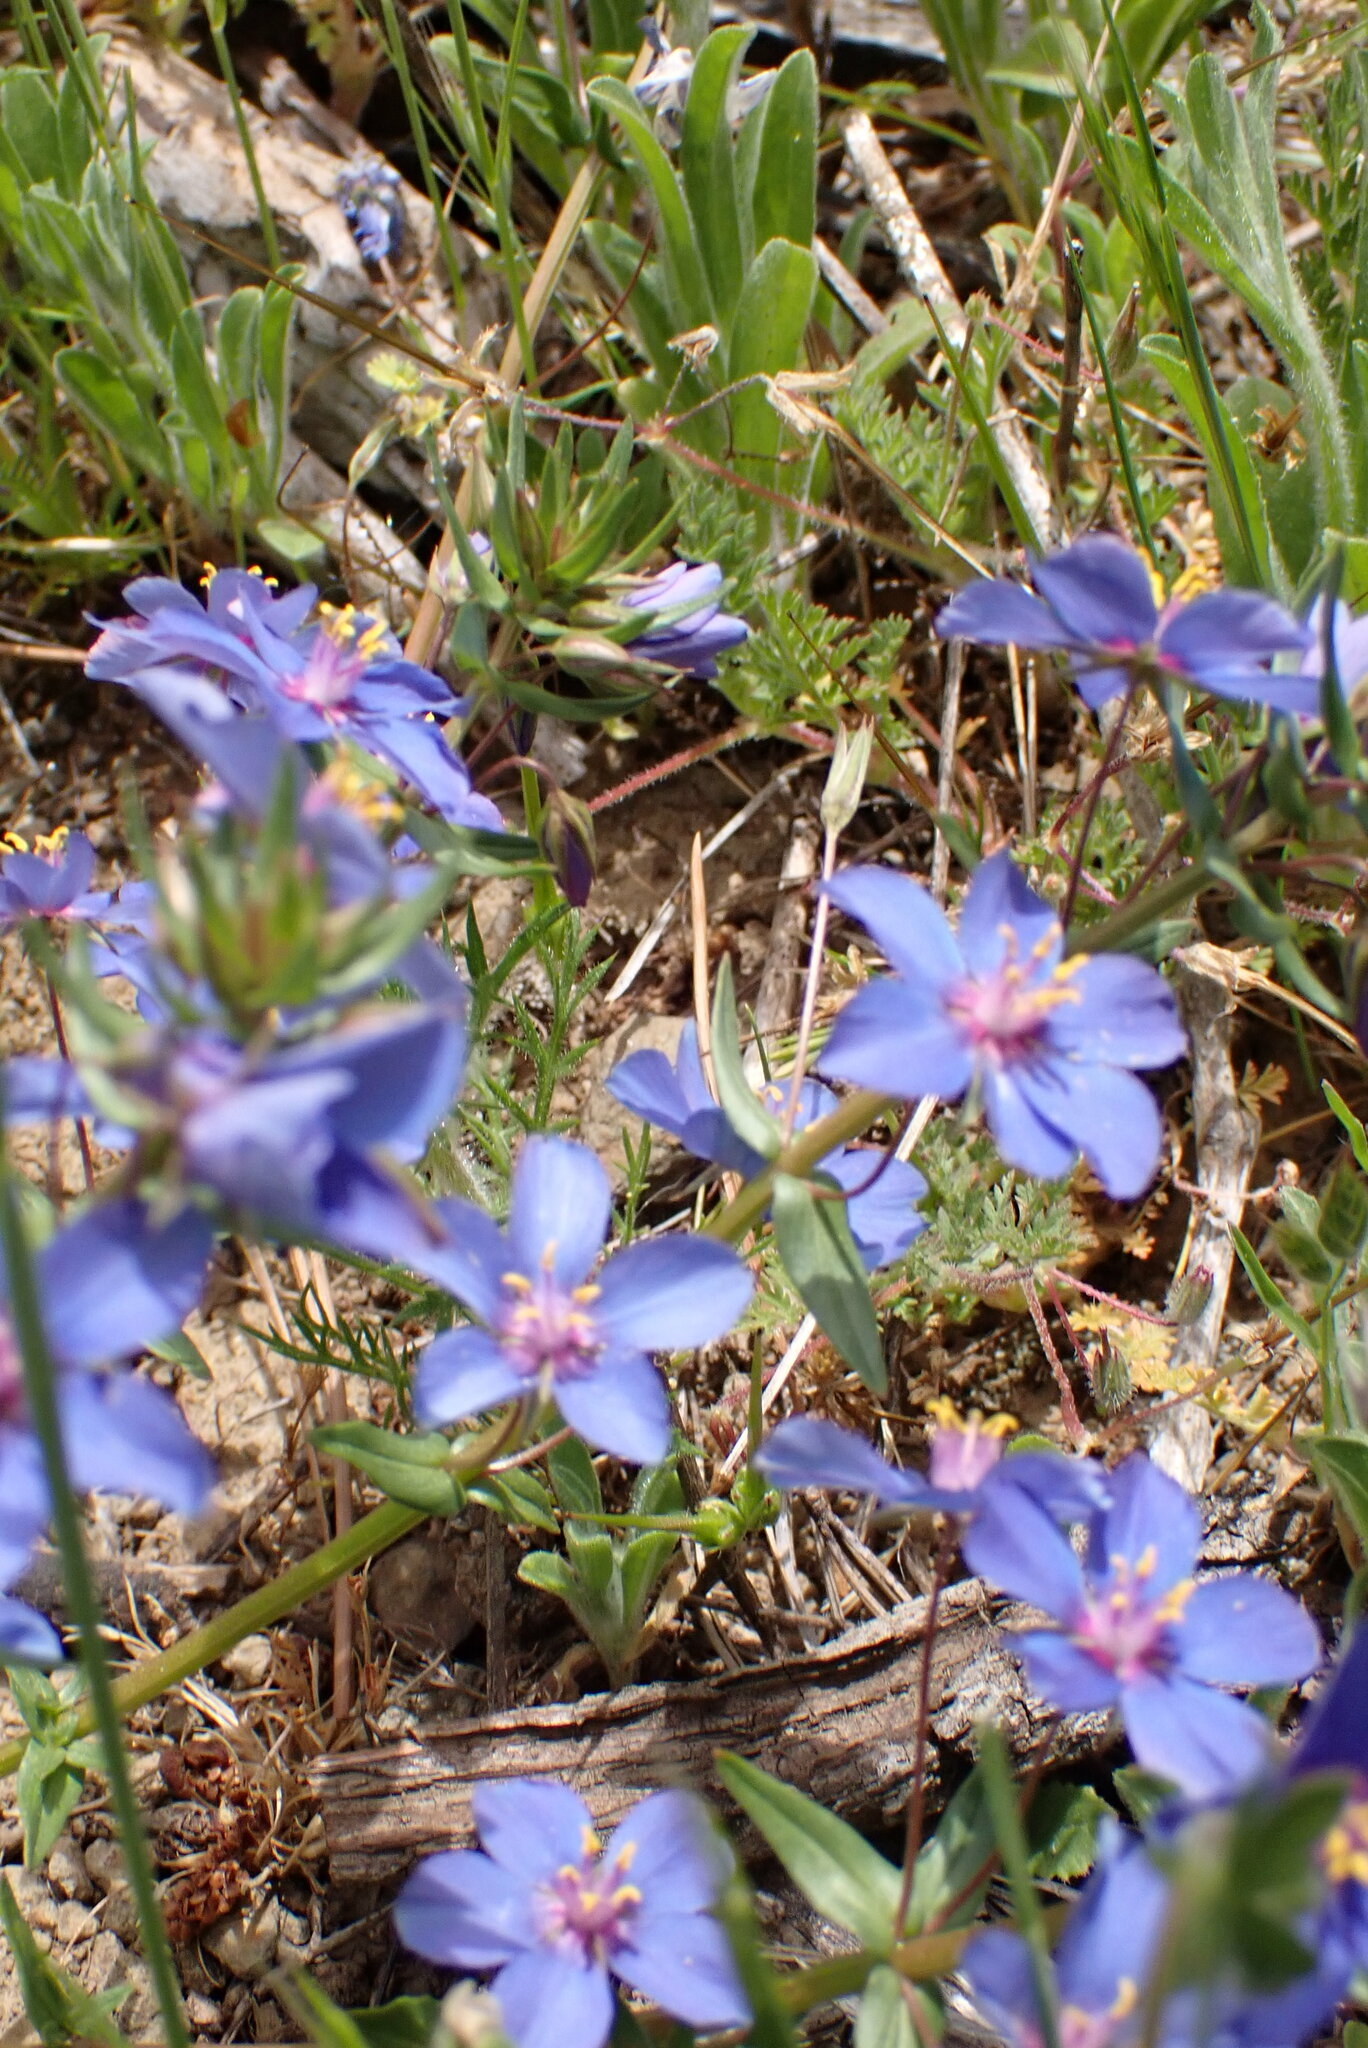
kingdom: Plantae
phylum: Tracheophyta
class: Magnoliopsida
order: Ericales
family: Primulaceae
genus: Lysimachia
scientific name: Lysimachia monelli
